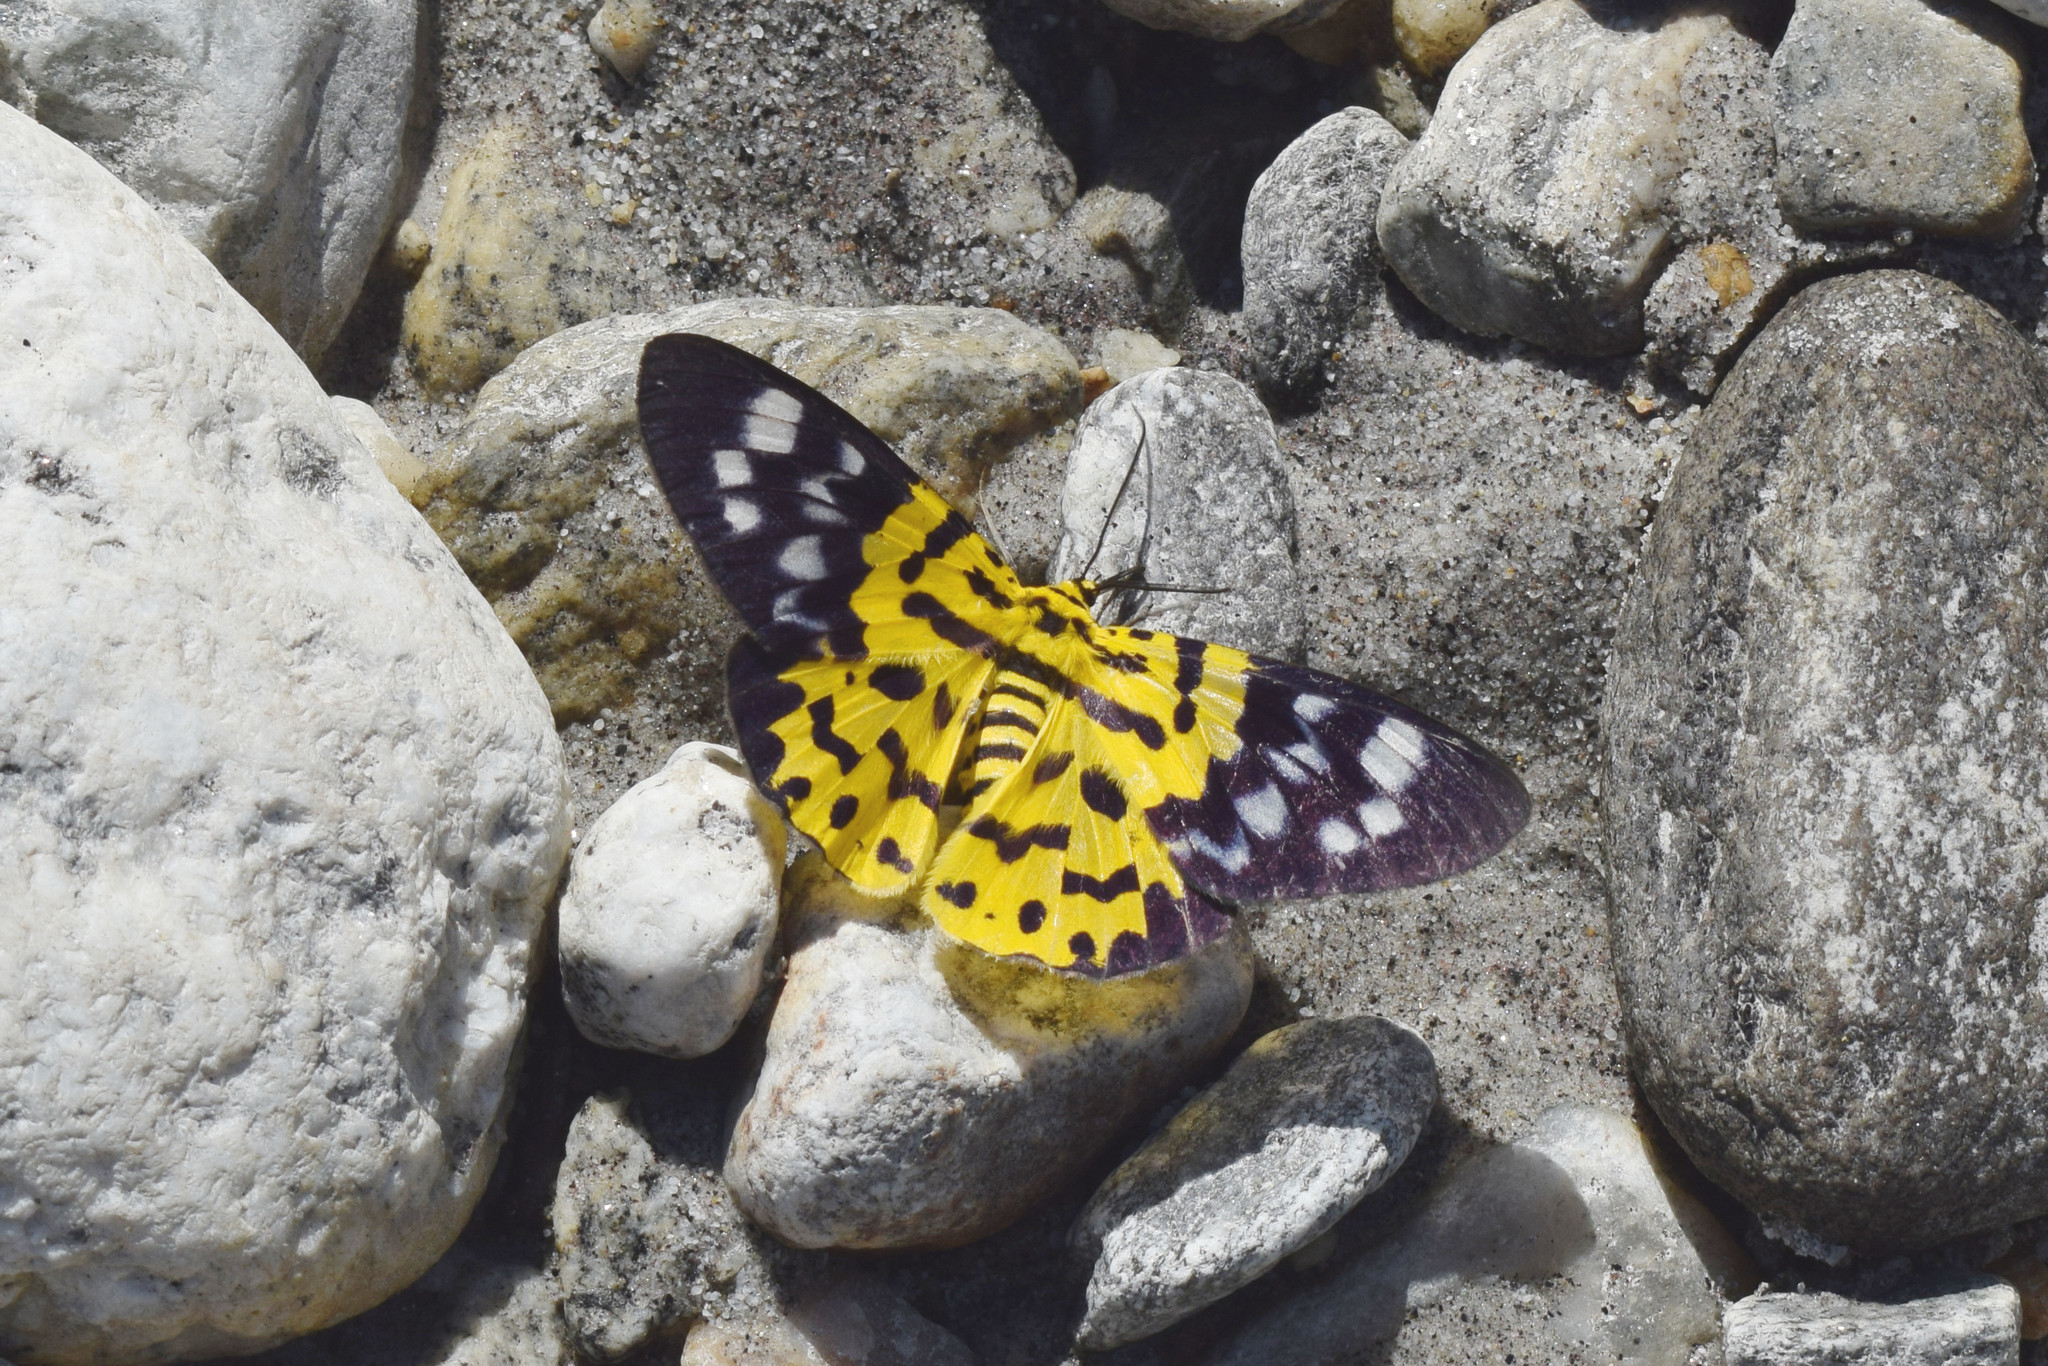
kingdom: Animalia
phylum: Arthropoda
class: Insecta
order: Lepidoptera
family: Geometridae
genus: Dysphania
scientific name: Dysphania militaris
